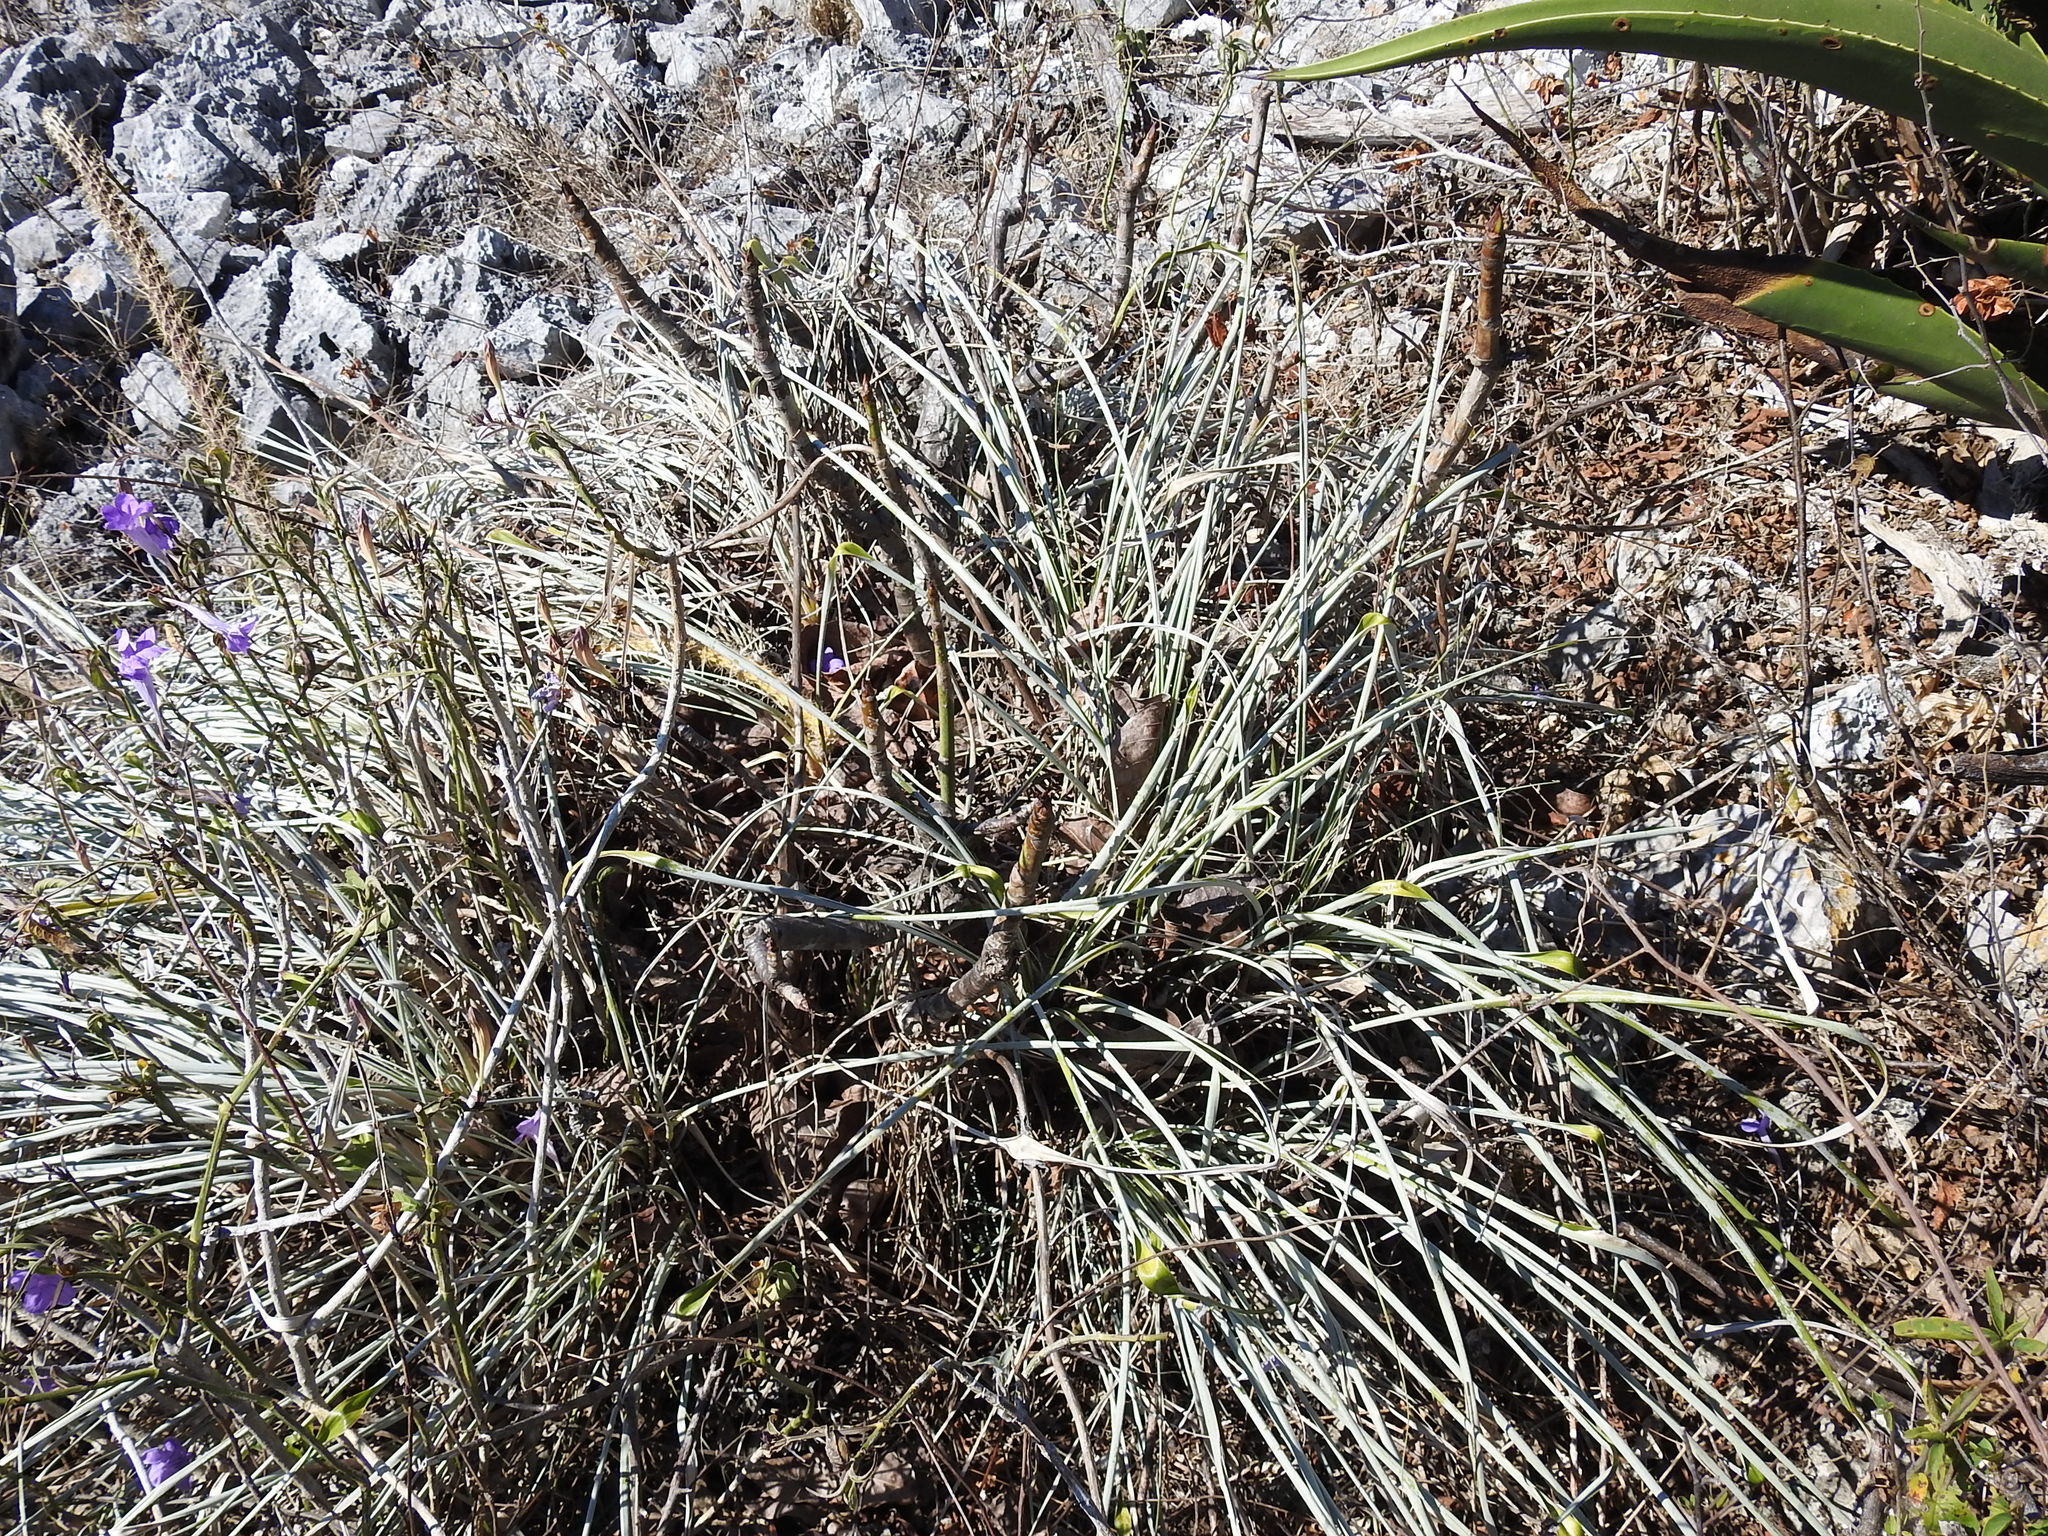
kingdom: Plantae
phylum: Tracheophyta
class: Liliopsida
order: Poales
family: Bromeliaceae
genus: Pitcairnia
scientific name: Pitcairnia breedlovei
